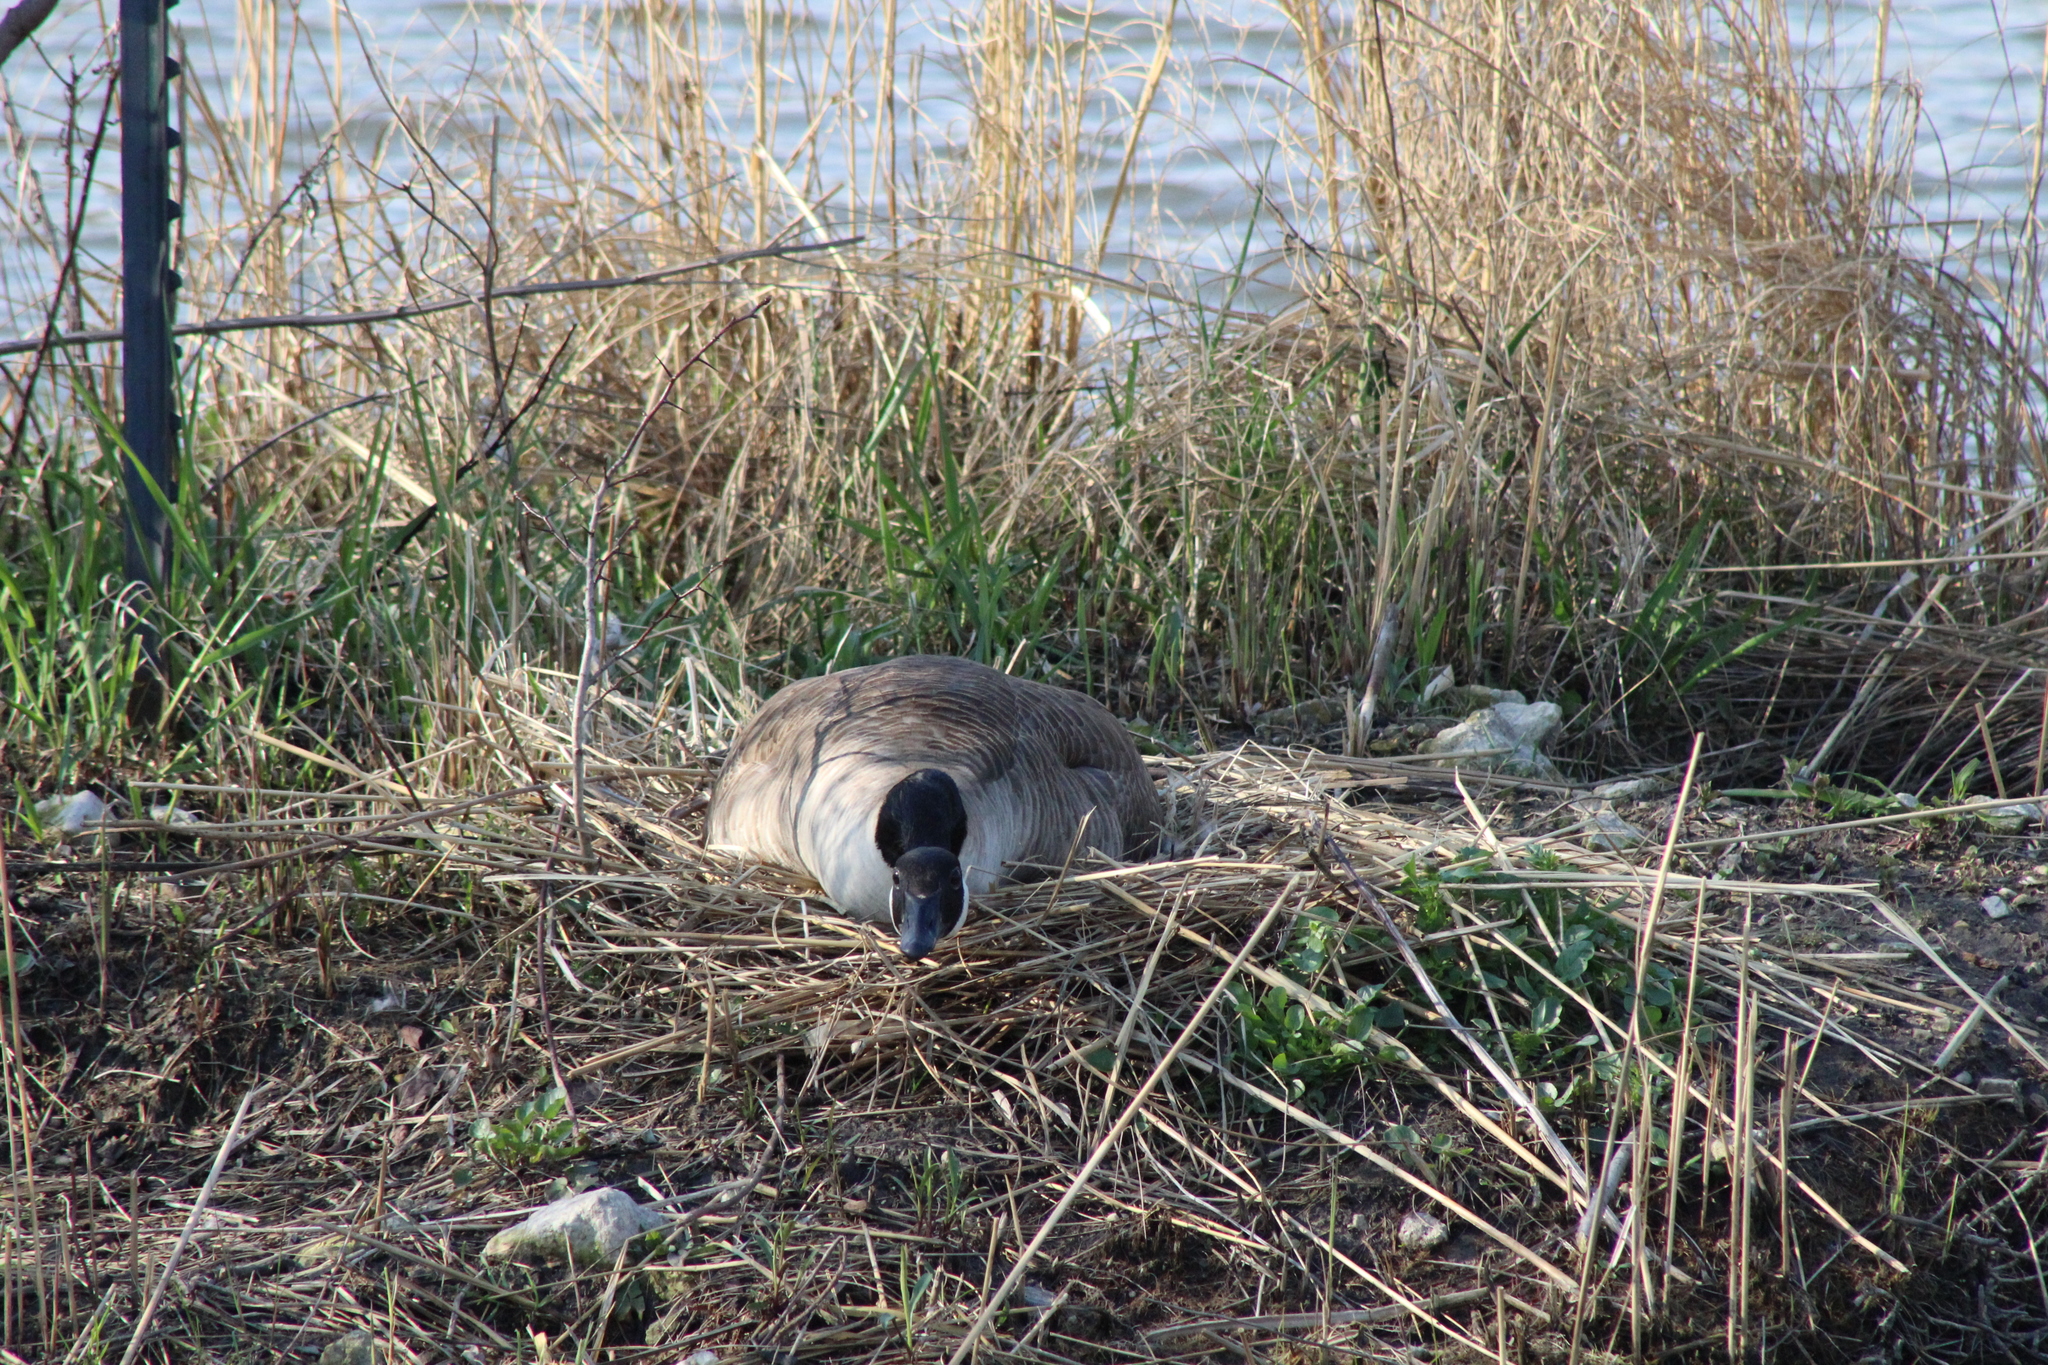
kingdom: Animalia
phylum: Chordata
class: Aves
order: Anseriformes
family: Anatidae
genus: Branta
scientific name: Branta canadensis
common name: Canada goose
